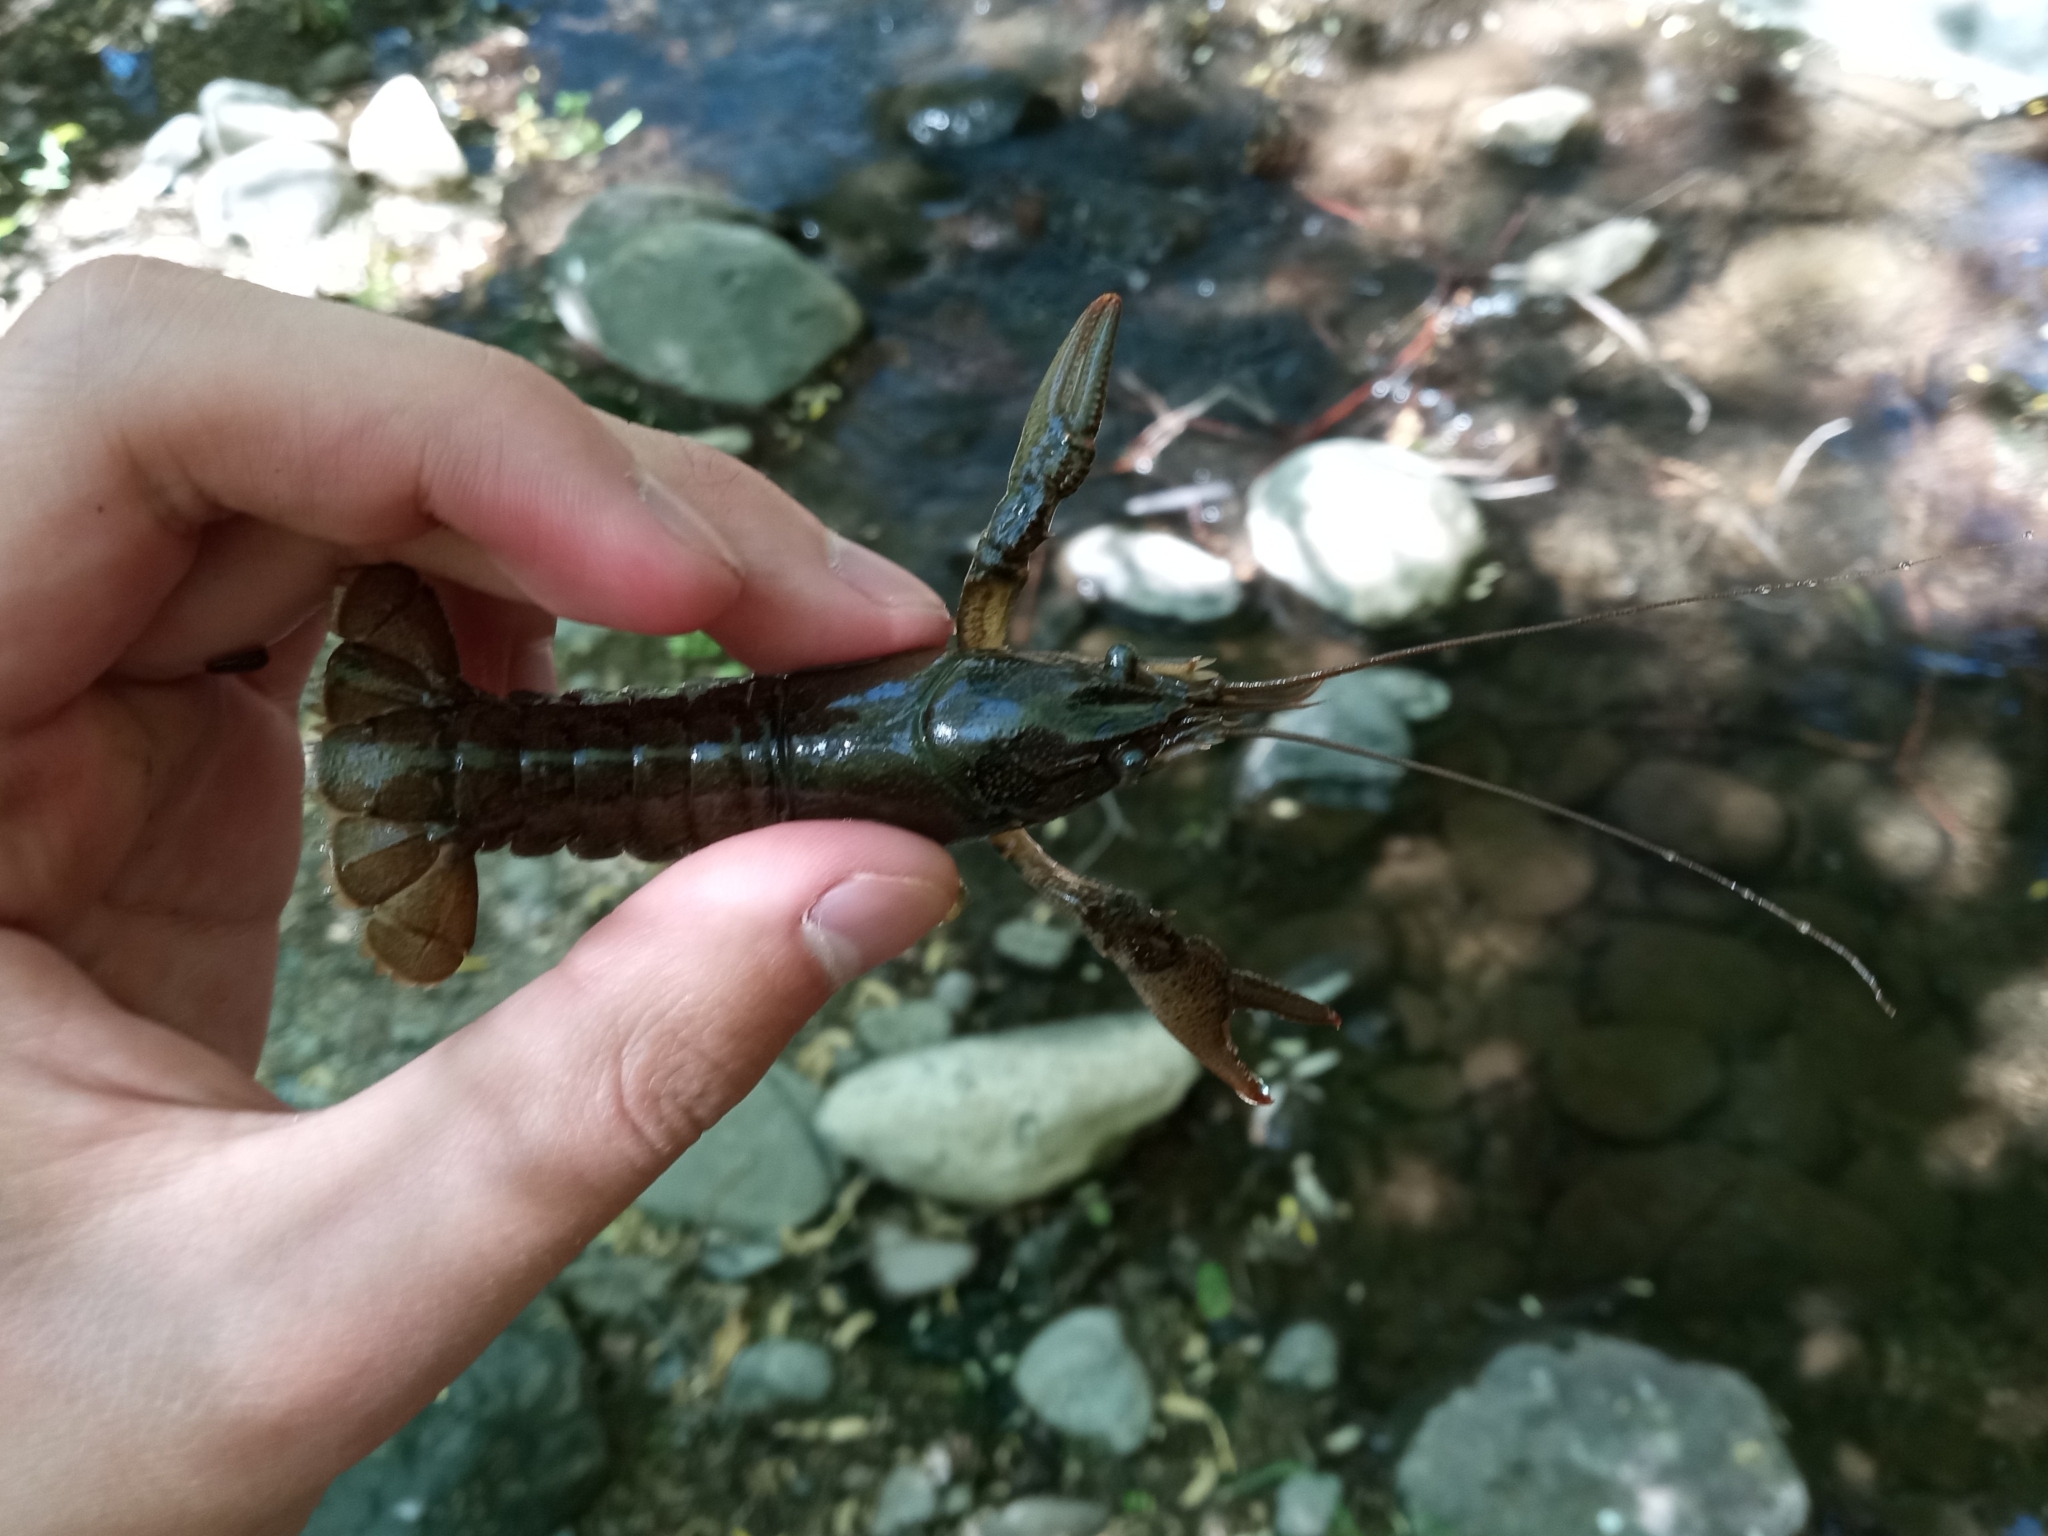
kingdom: Animalia
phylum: Arthropoda
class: Malacostraca
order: Decapoda
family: Cambaridae
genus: Faxonius
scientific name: Faxonius virilis
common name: Virile crayfish
